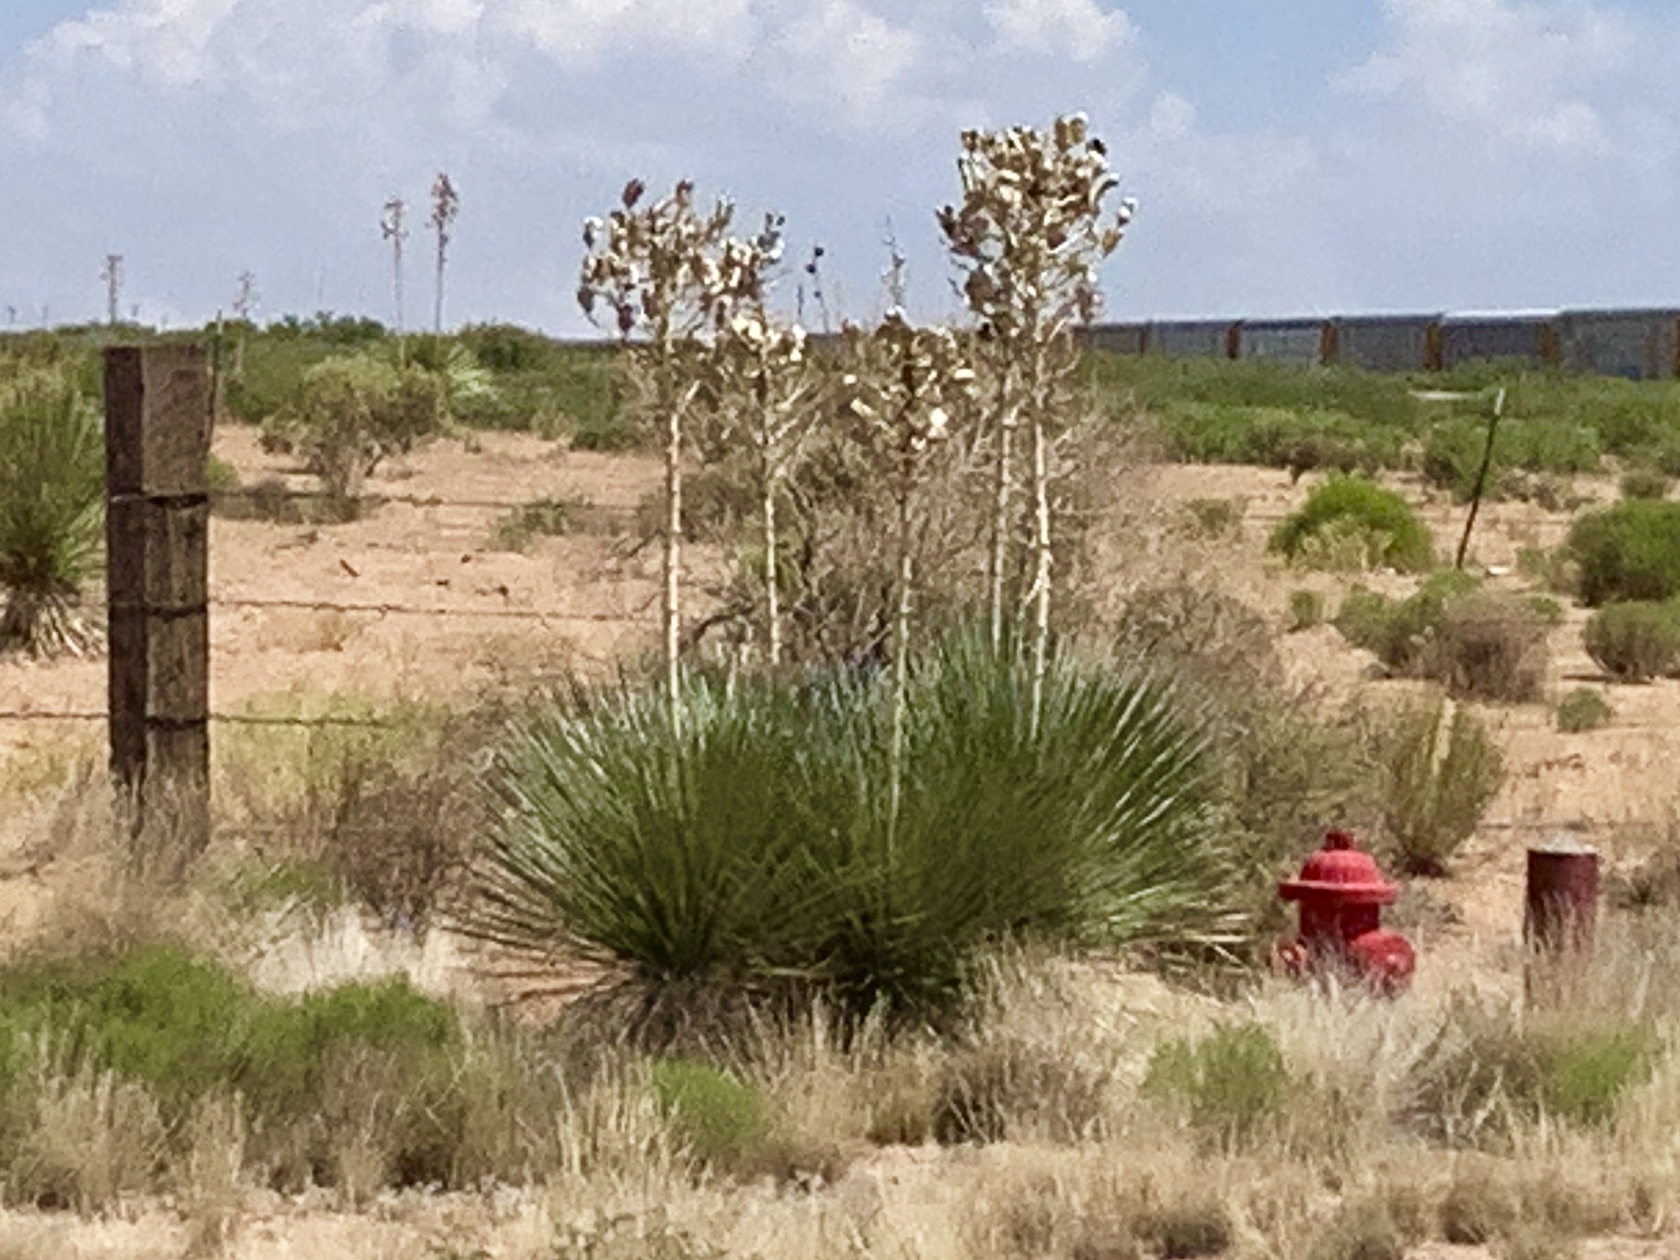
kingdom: Plantae
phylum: Tracheophyta
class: Liliopsida
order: Asparagales
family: Asparagaceae
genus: Yucca
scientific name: Yucca elata
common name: Palmella
